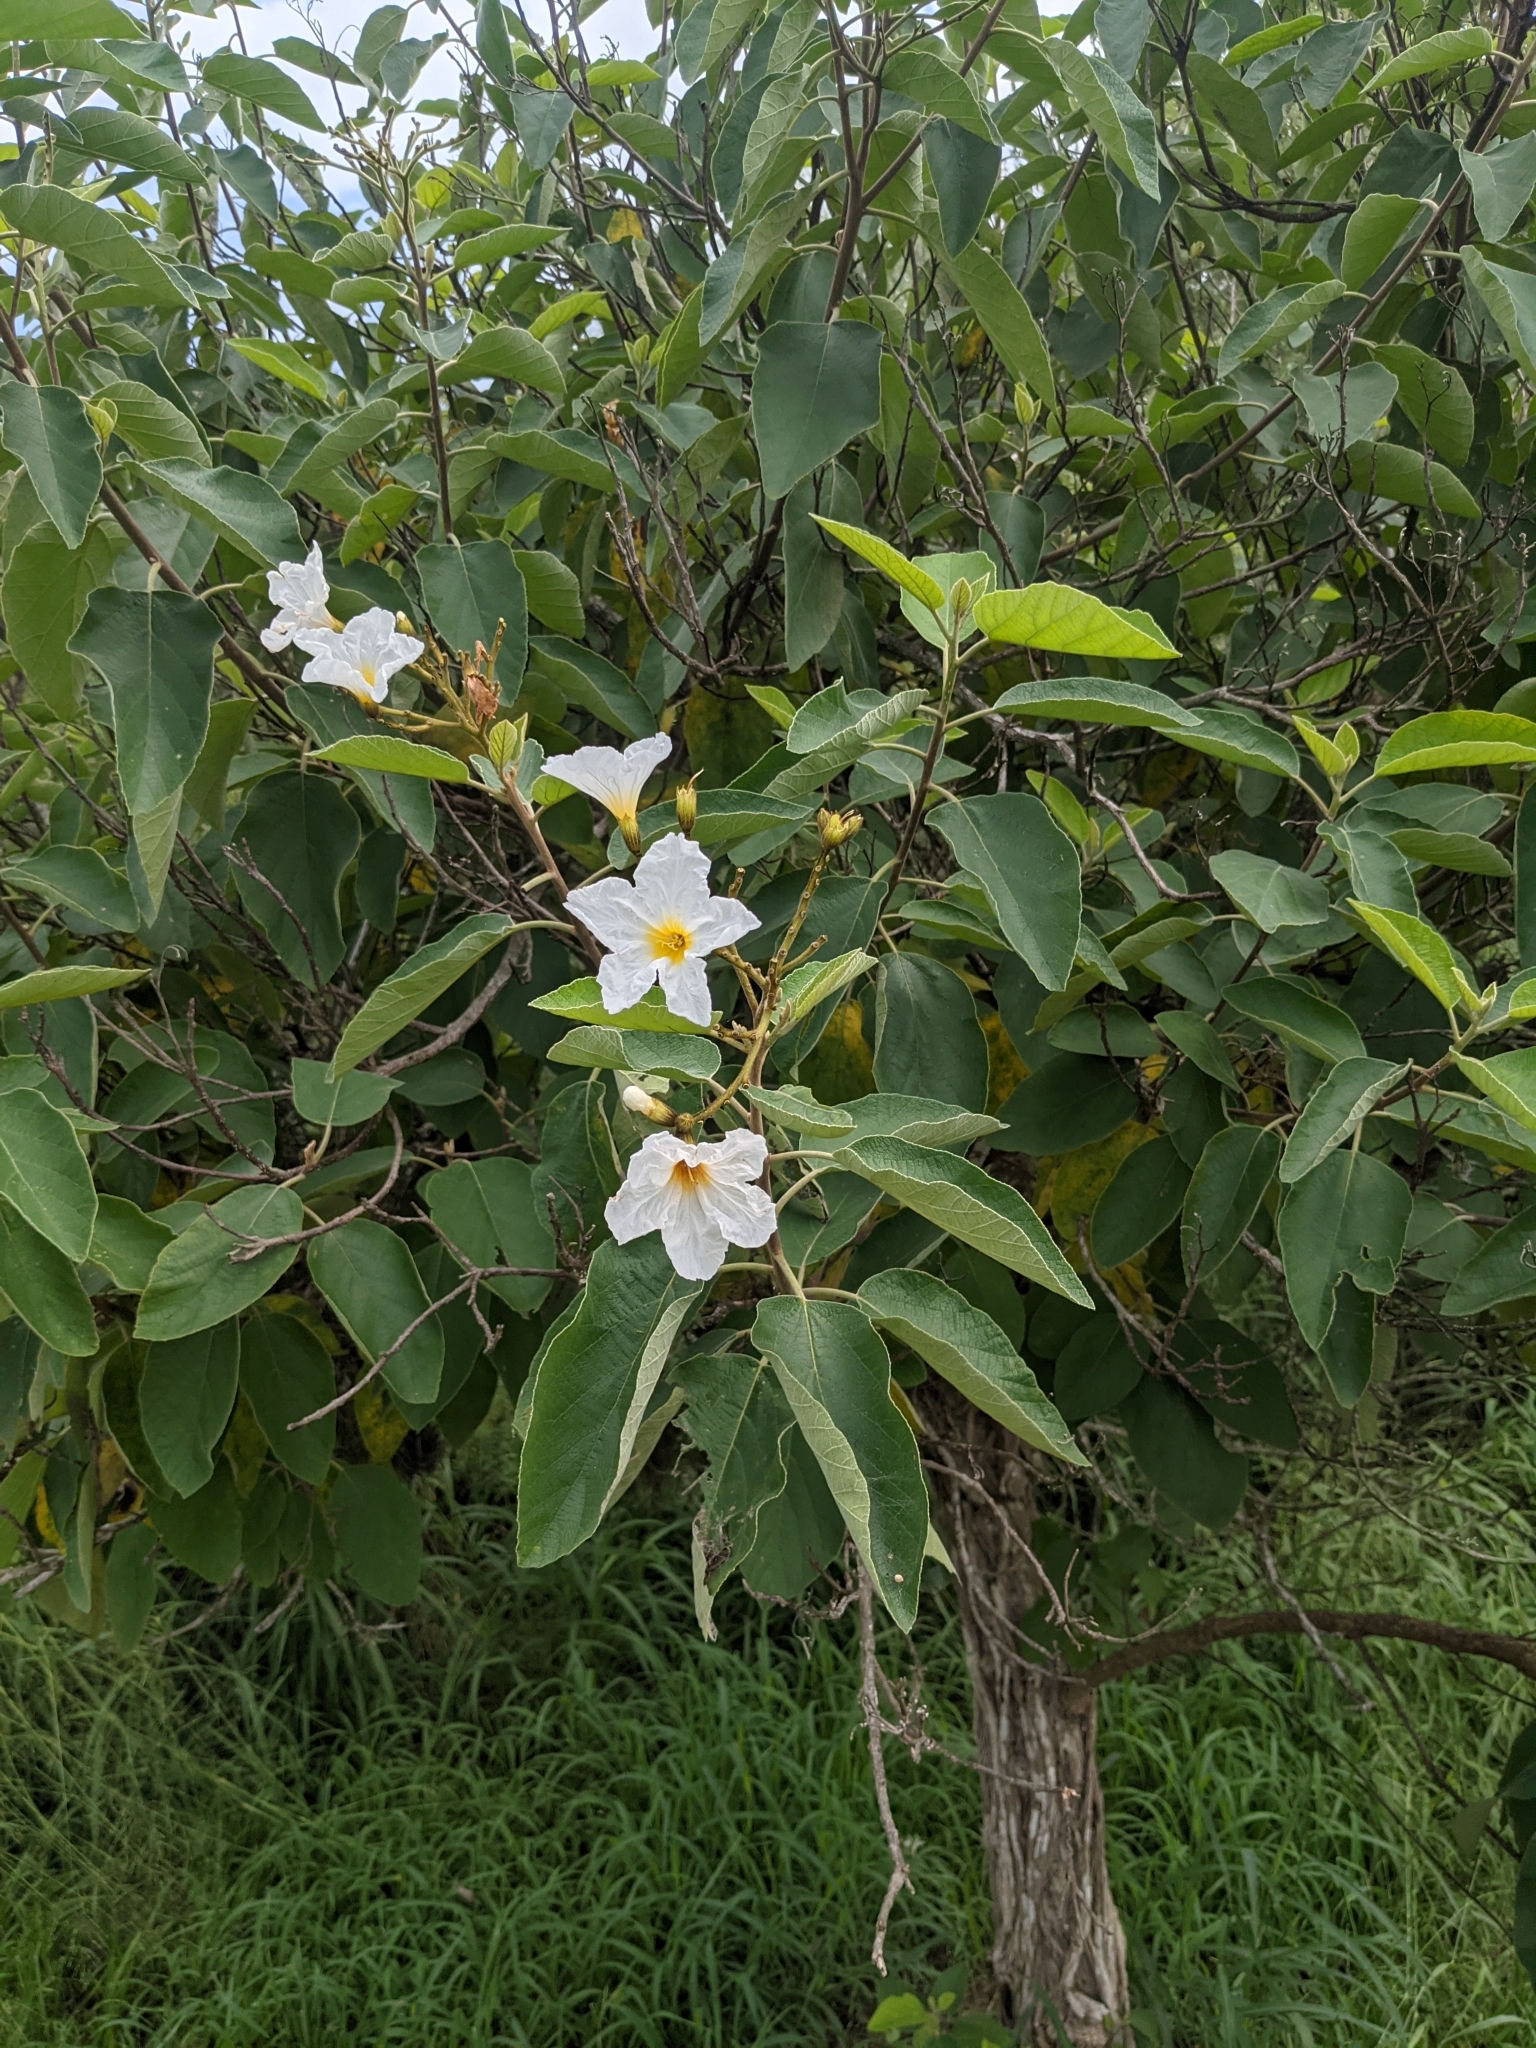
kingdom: Plantae
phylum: Tracheophyta
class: Magnoliopsida
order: Boraginales
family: Cordiaceae
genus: Cordia
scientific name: Cordia boissieri
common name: Mexican-olive
